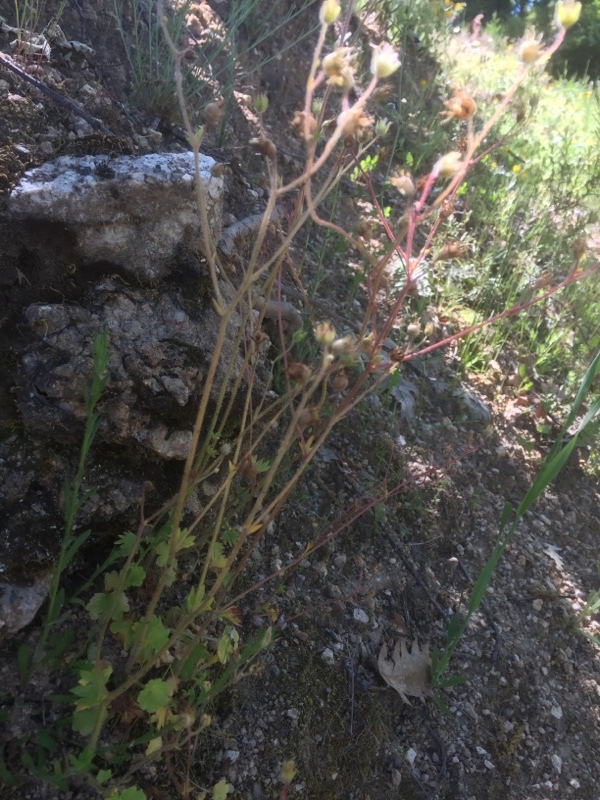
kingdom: Plantae
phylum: Tracheophyta
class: Magnoliopsida
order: Saxifragales
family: Saxifragaceae
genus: Saxifraga
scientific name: Saxifraga granulata
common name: Meadow saxifrage
